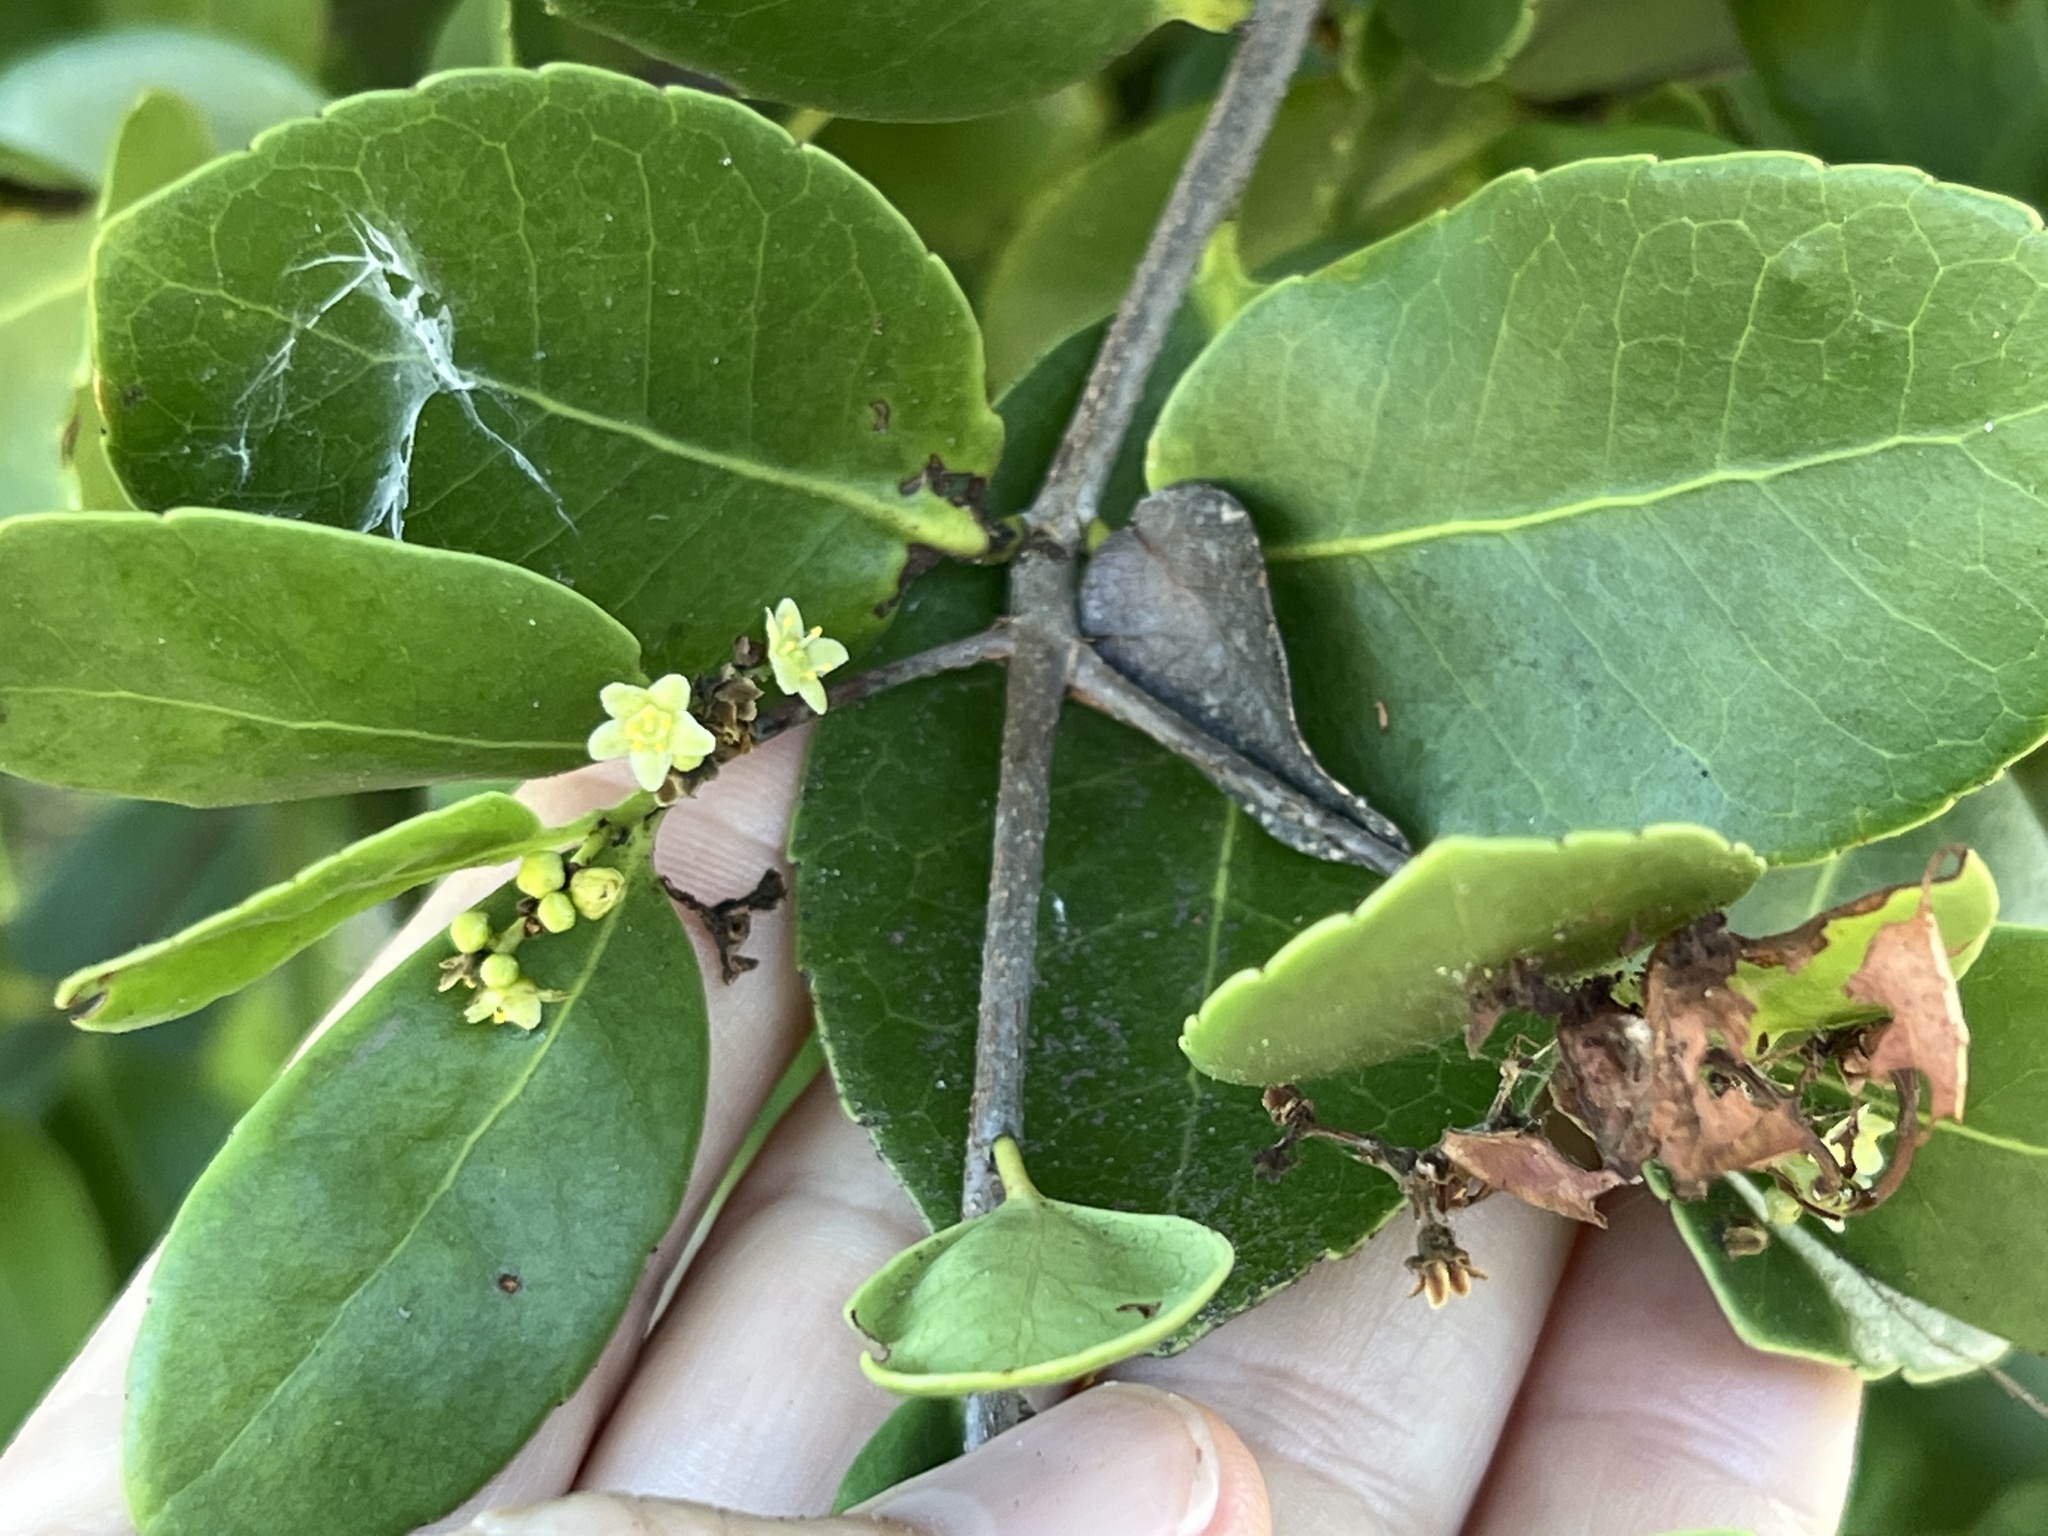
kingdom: Plantae
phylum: Tracheophyta
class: Magnoliopsida
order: Celastrales
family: Celastraceae
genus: Elaeodendron
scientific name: Elaeodendron xylocarpum
